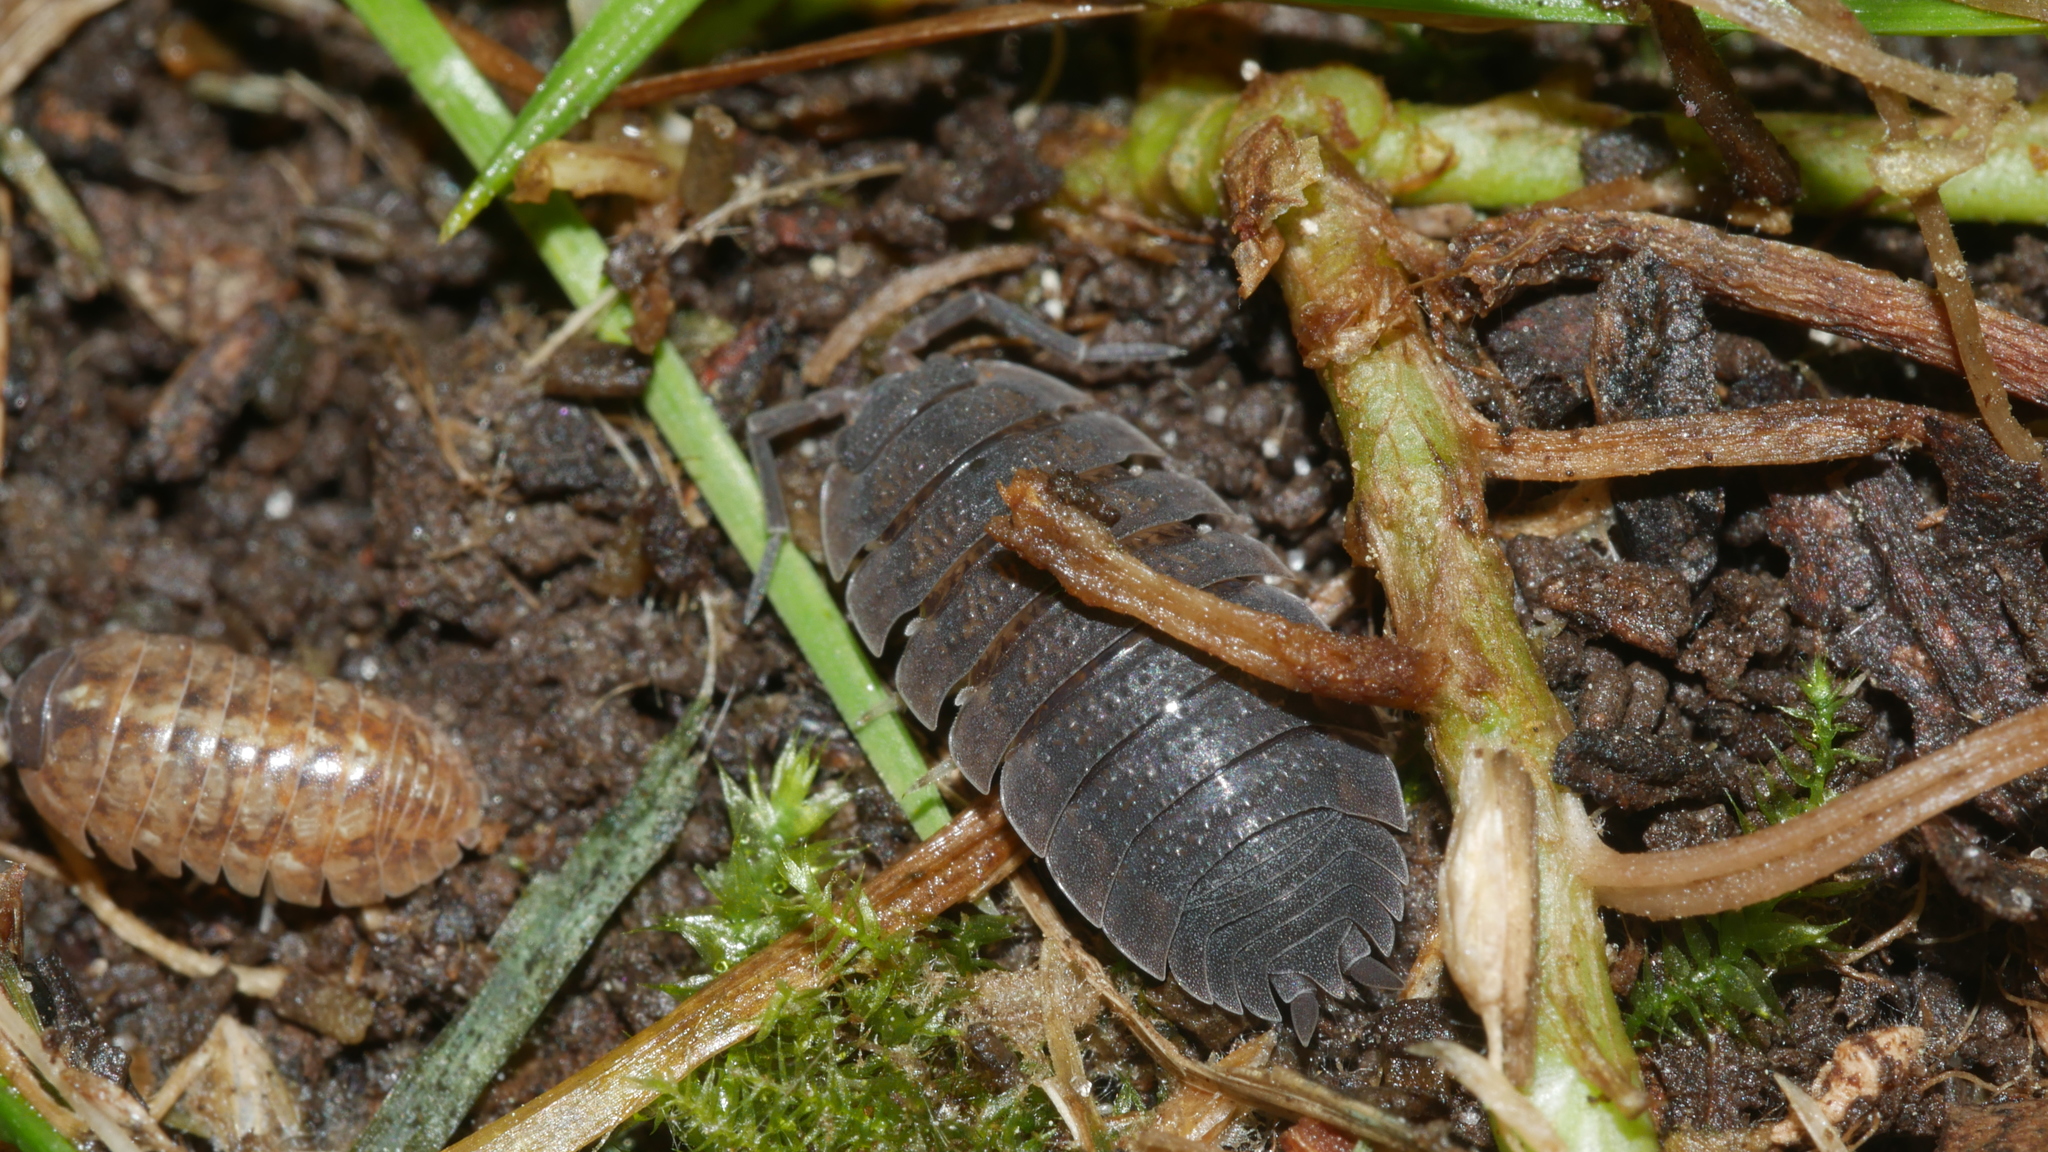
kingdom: Animalia
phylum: Arthropoda
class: Malacostraca
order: Isopoda
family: Porcellionidae
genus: Porcellio
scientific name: Porcellio scaber
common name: Common rough woodlouse
